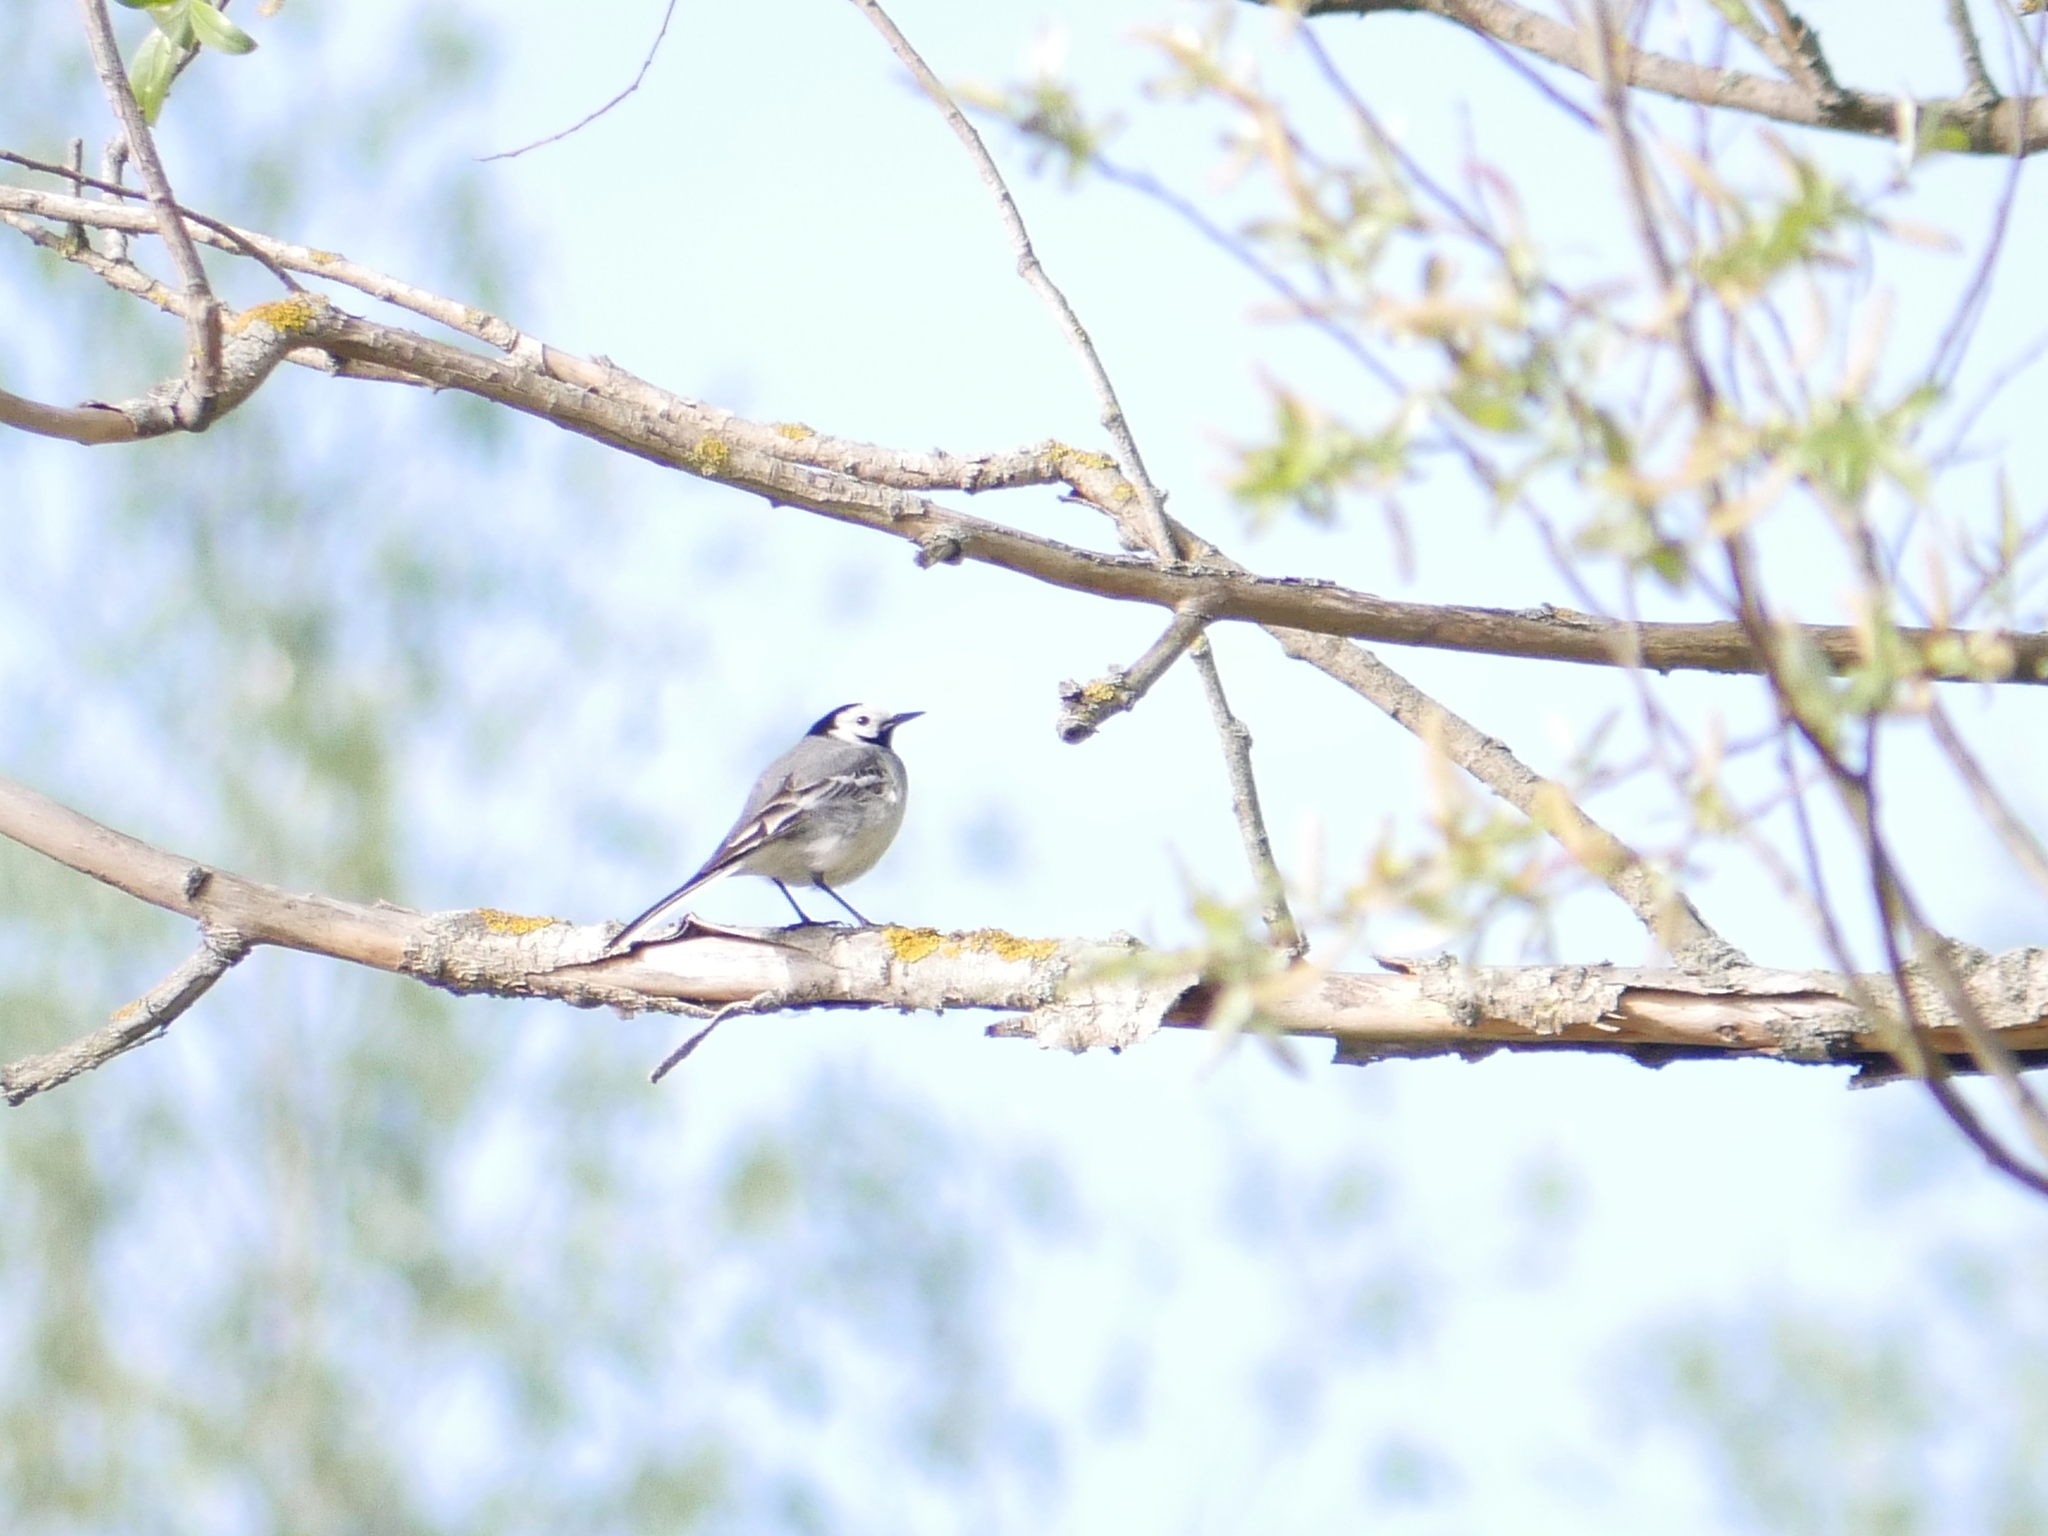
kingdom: Animalia
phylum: Chordata
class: Aves
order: Passeriformes
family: Motacillidae
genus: Motacilla
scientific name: Motacilla alba
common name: White wagtail
